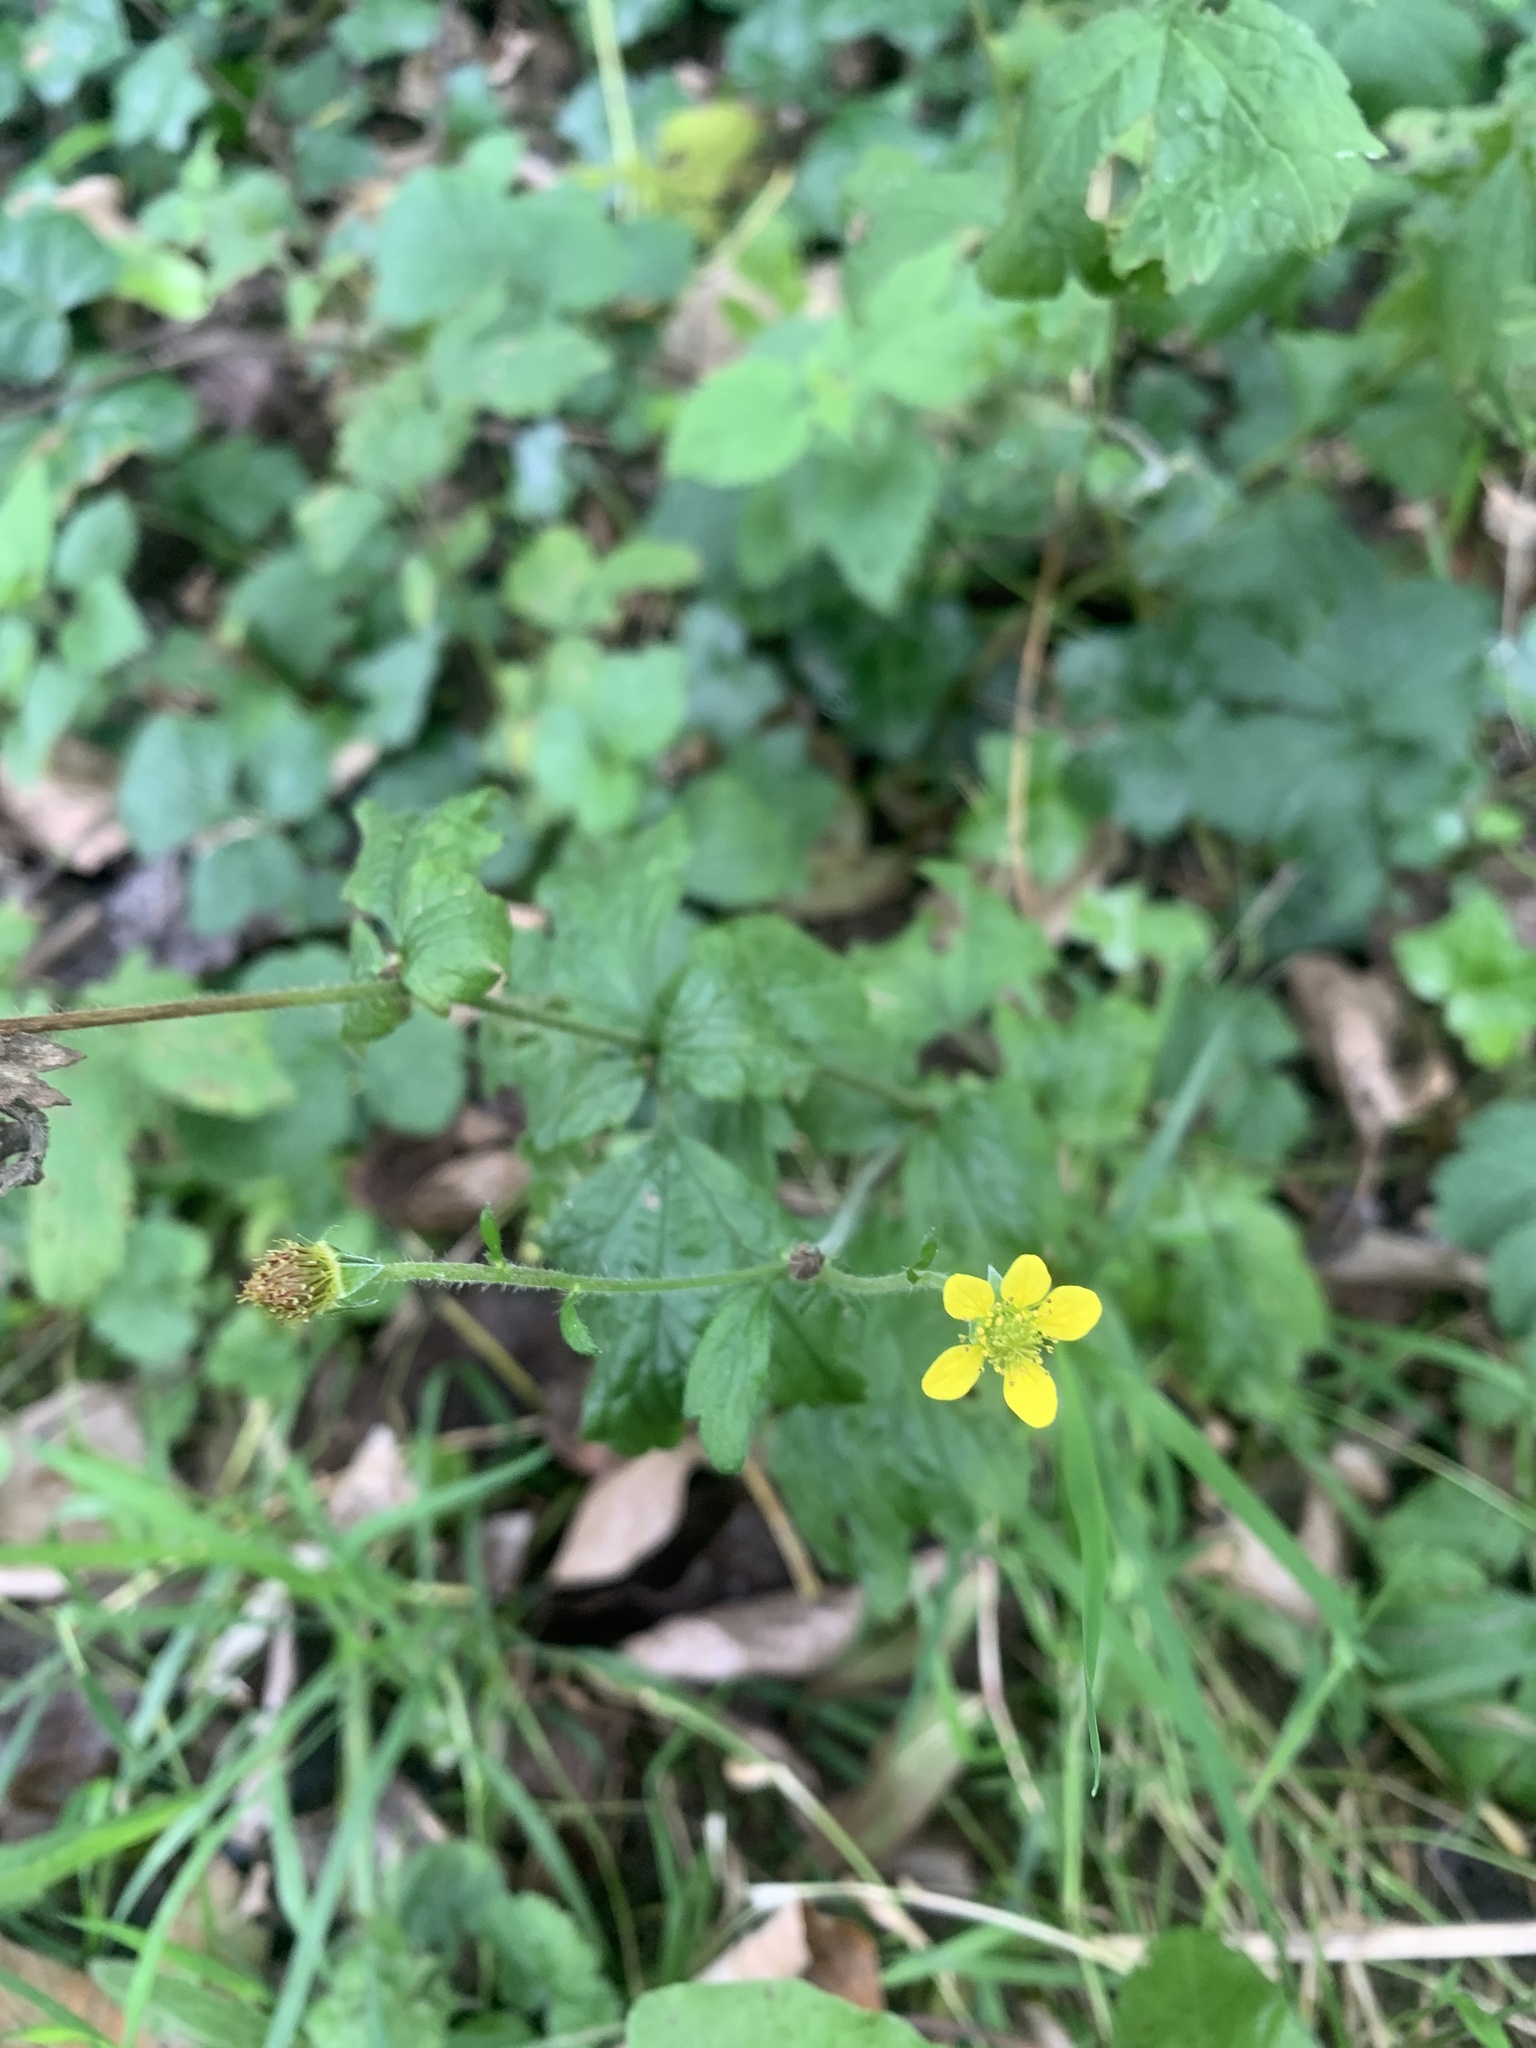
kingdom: Plantae
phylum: Tracheophyta
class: Magnoliopsida
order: Rosales
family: Rosaceae
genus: Geum
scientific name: Geum urbanum
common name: Wood avens
